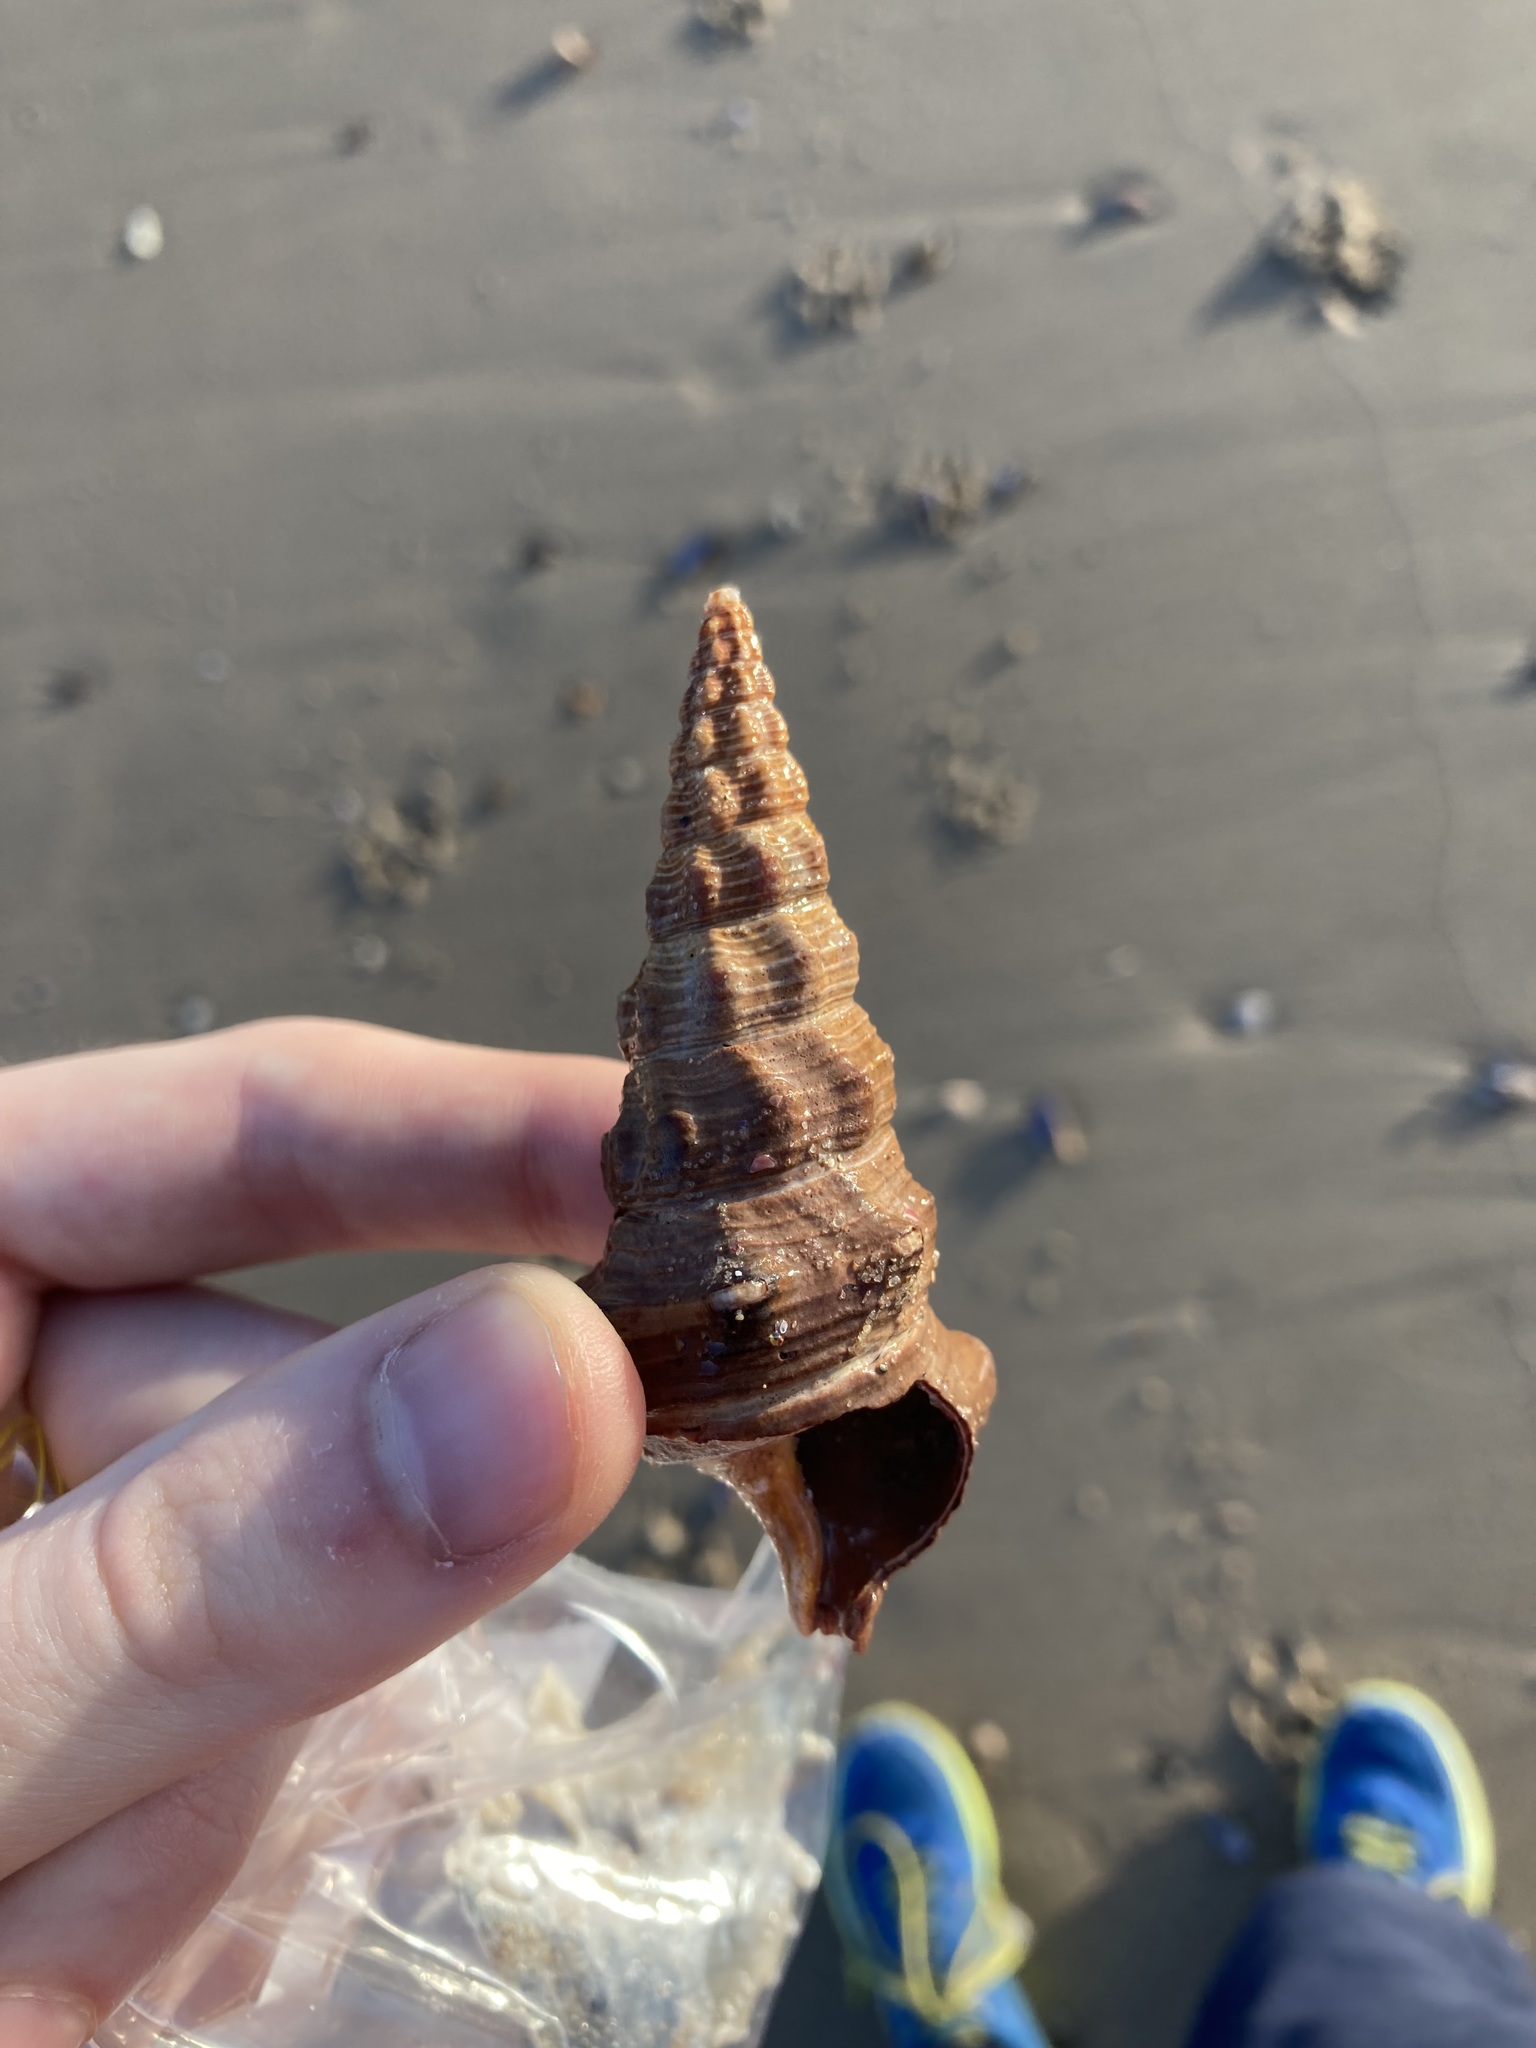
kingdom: Animalia
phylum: Mollusca
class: Gastropoda
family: Batillariidae
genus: Pyrazus
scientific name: Pyrazus ebeninus
